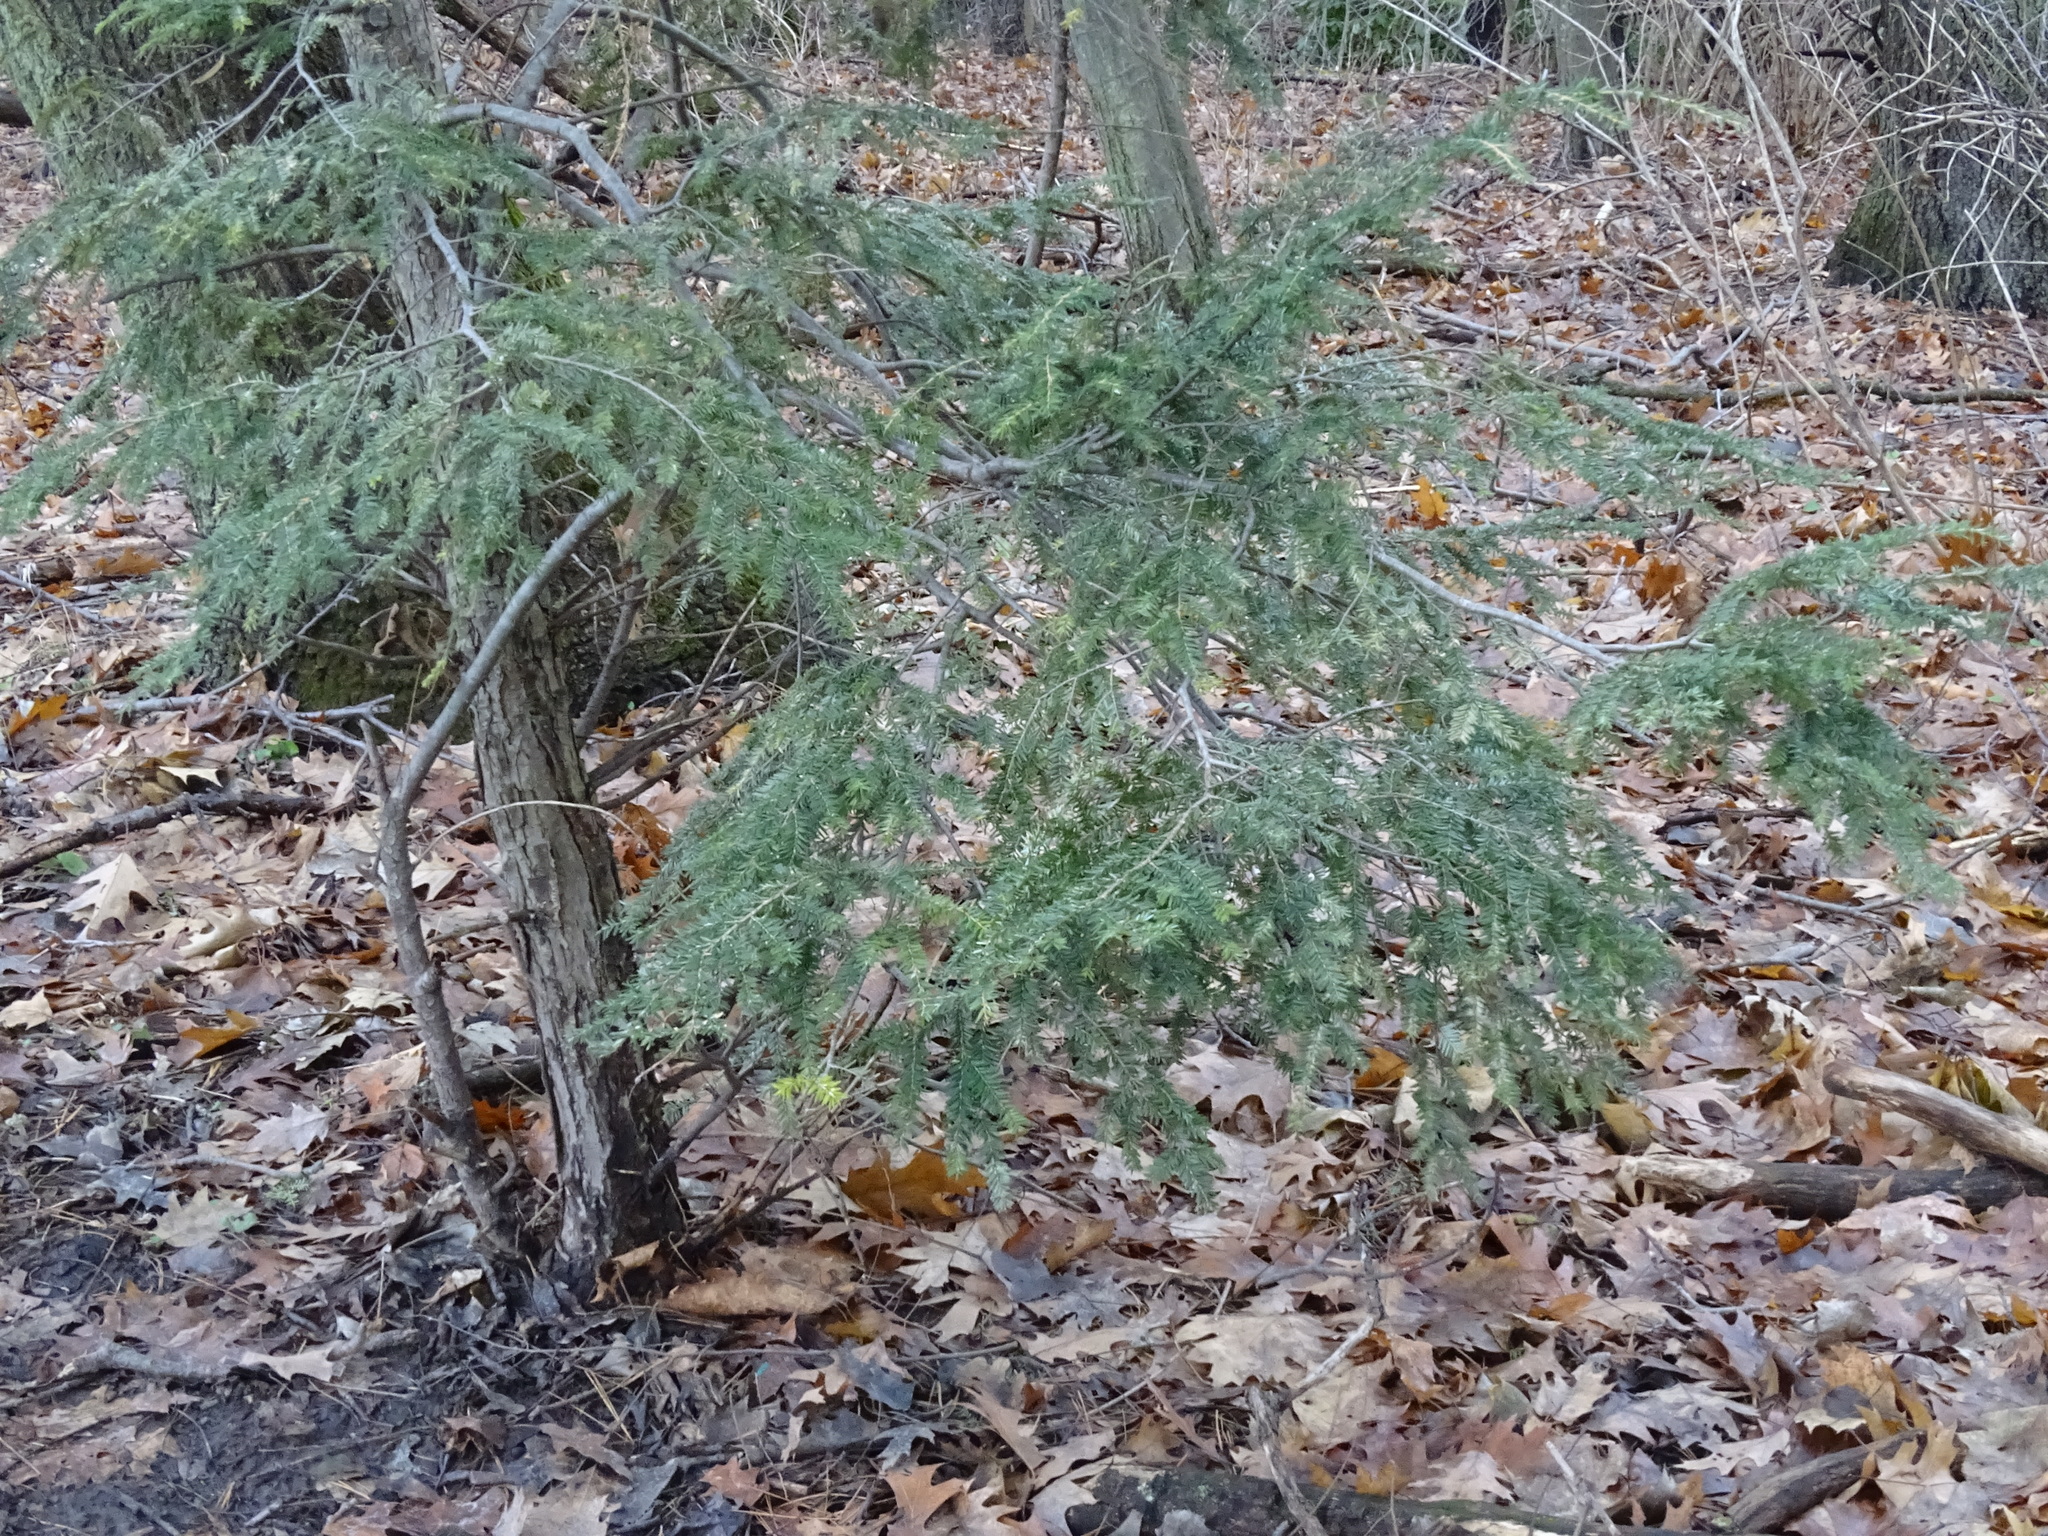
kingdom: Plantae
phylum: Tracheophyta
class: Pinopsida
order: Pinales
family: Pinaceae
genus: Tsuga
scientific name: Tsuga canadensis
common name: Eastern hemlock
